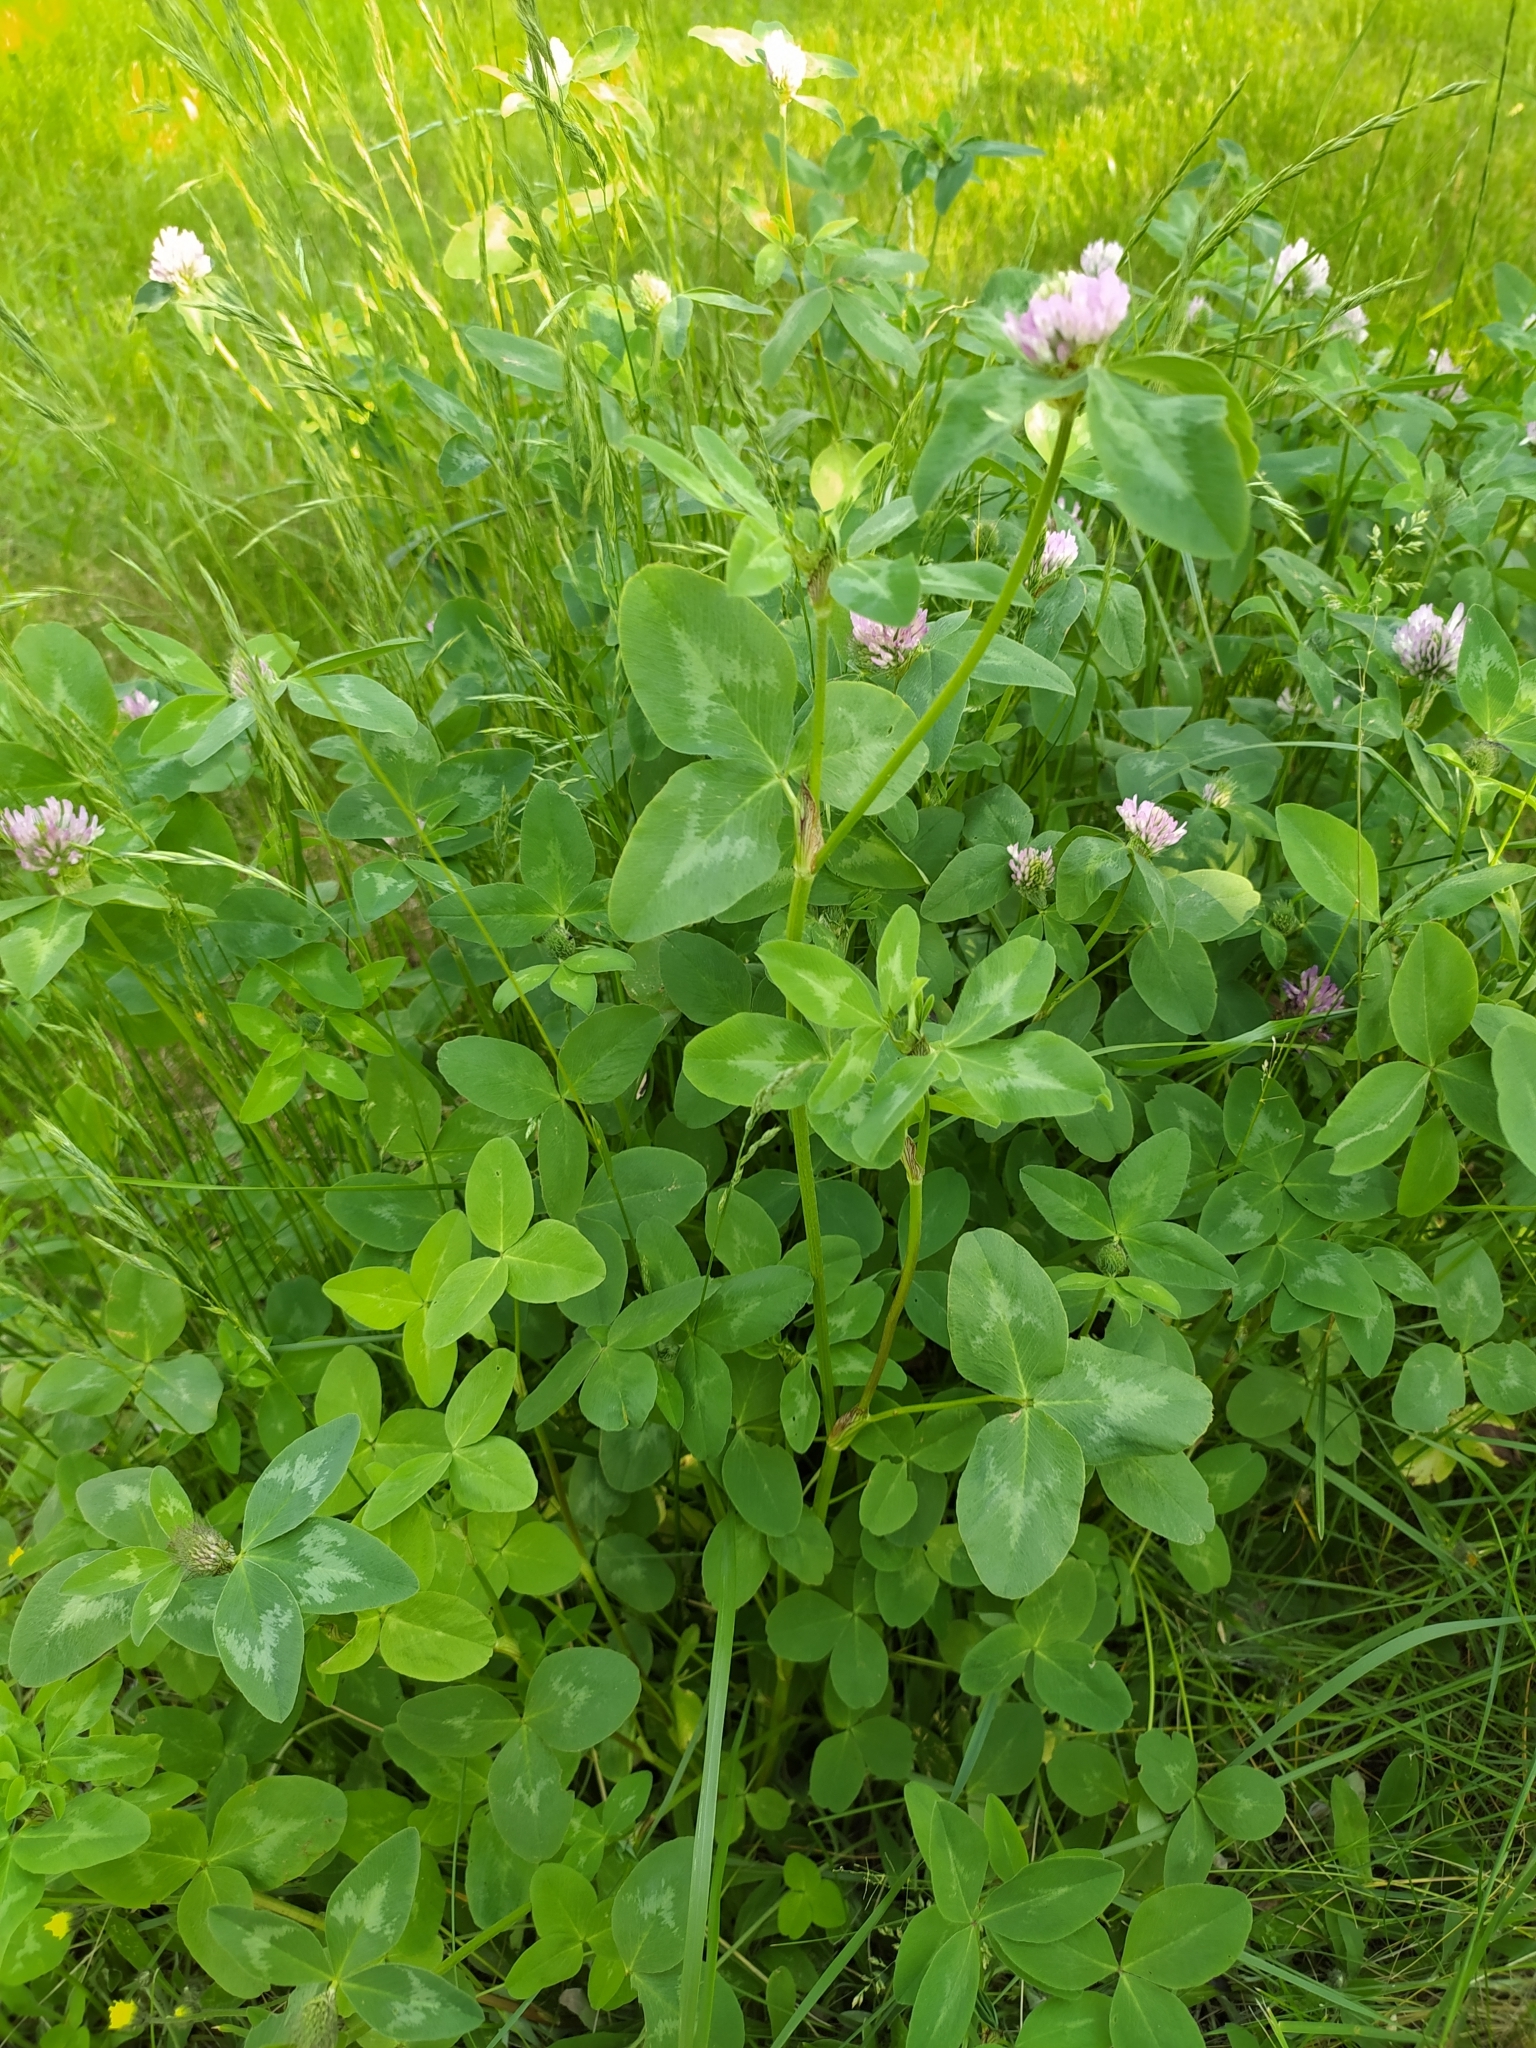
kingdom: Plantae
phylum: Tracheophyta
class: Magnoliopsida
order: Fabales
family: Fabaceae
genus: Trifolium
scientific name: Trifolium pratense
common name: Red clover
